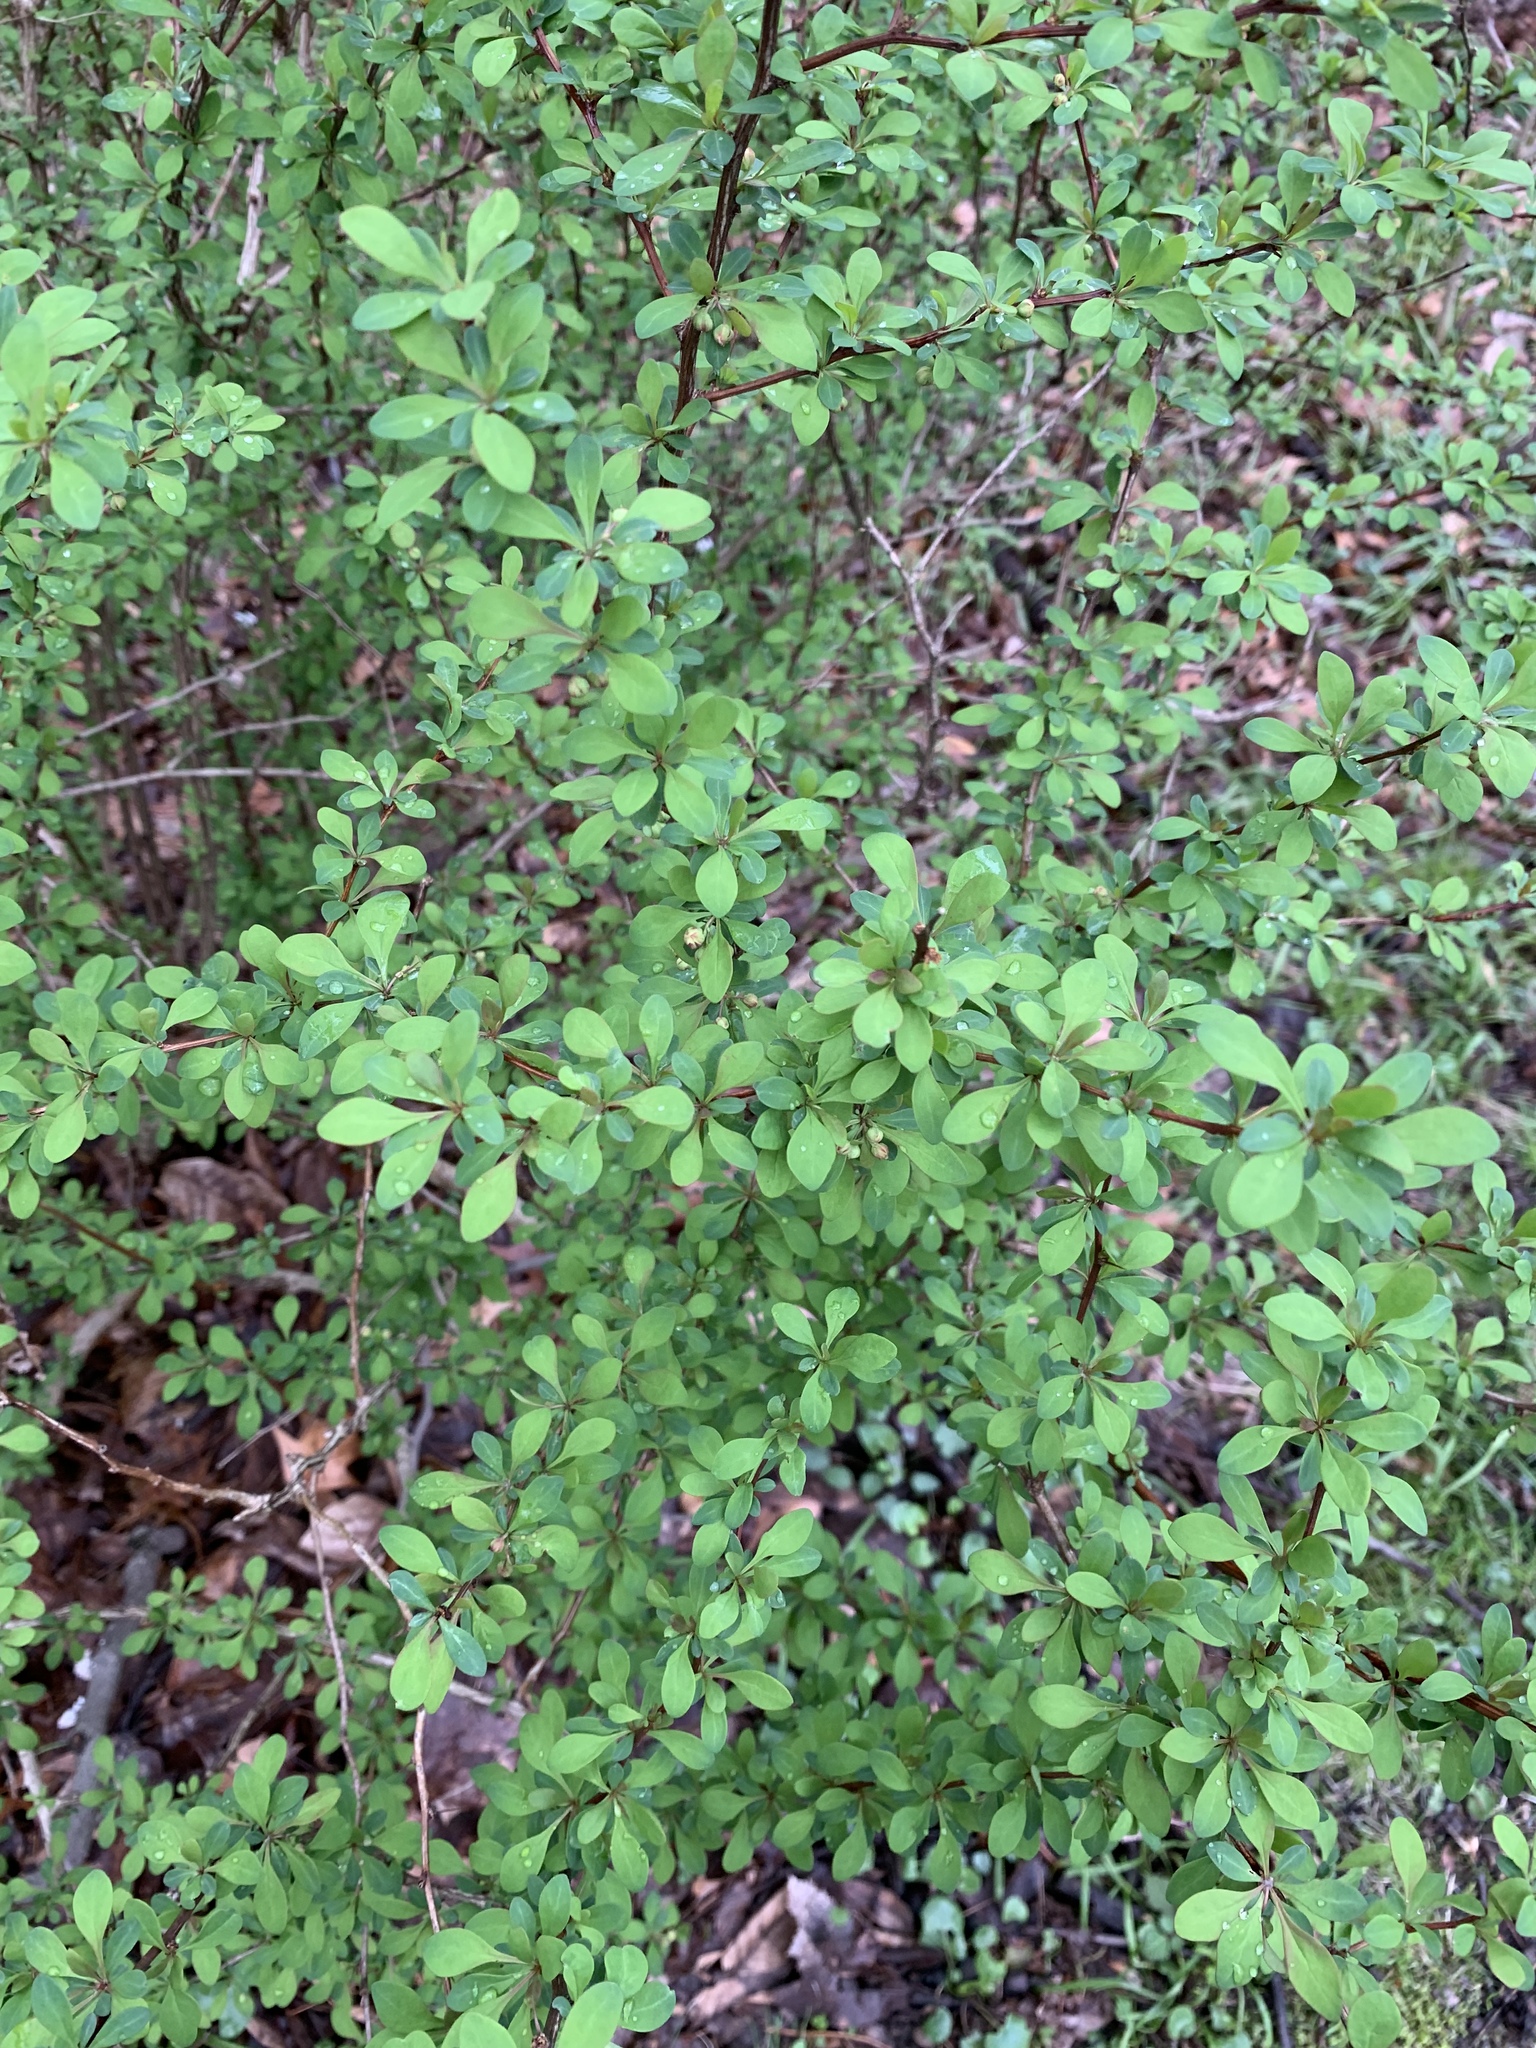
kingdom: Plantae
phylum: Tracheophyta
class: Magnoliopsida
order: Ranunculales
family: Berberidaceae
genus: Berberis
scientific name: Berberis thunbergii
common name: Japanese barberry
